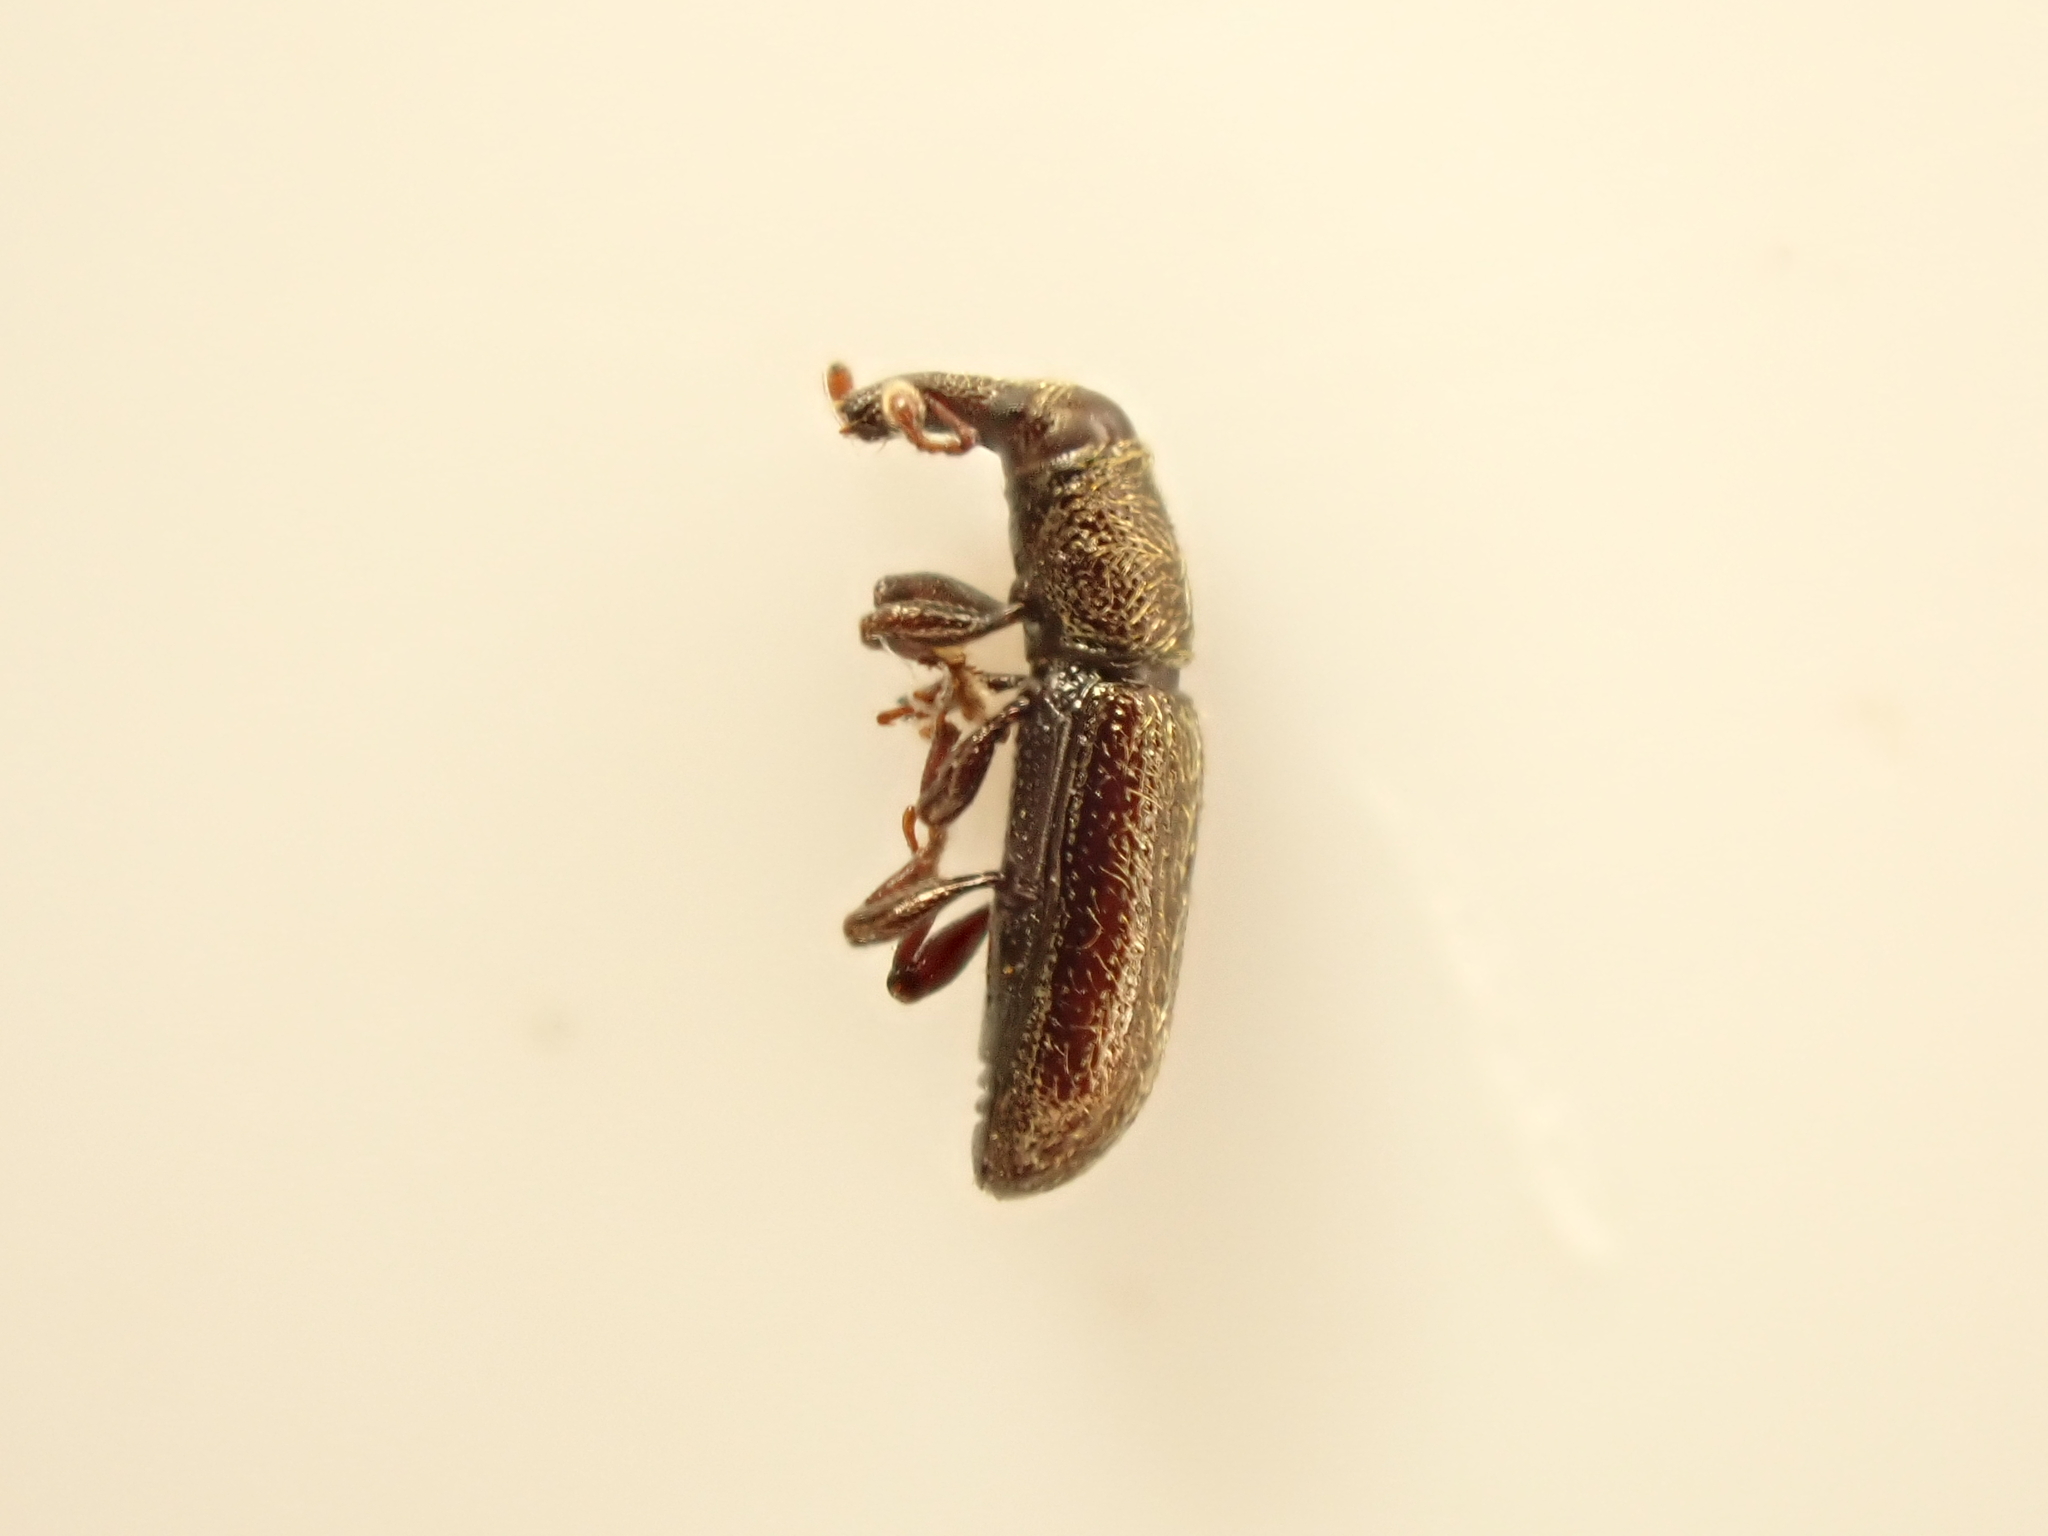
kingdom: Animalia
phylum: Arthropoda
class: Insecta
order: Coleoptera
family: Curculionidae
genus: Sericotrogus
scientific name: Sericotrogus subaenescens
